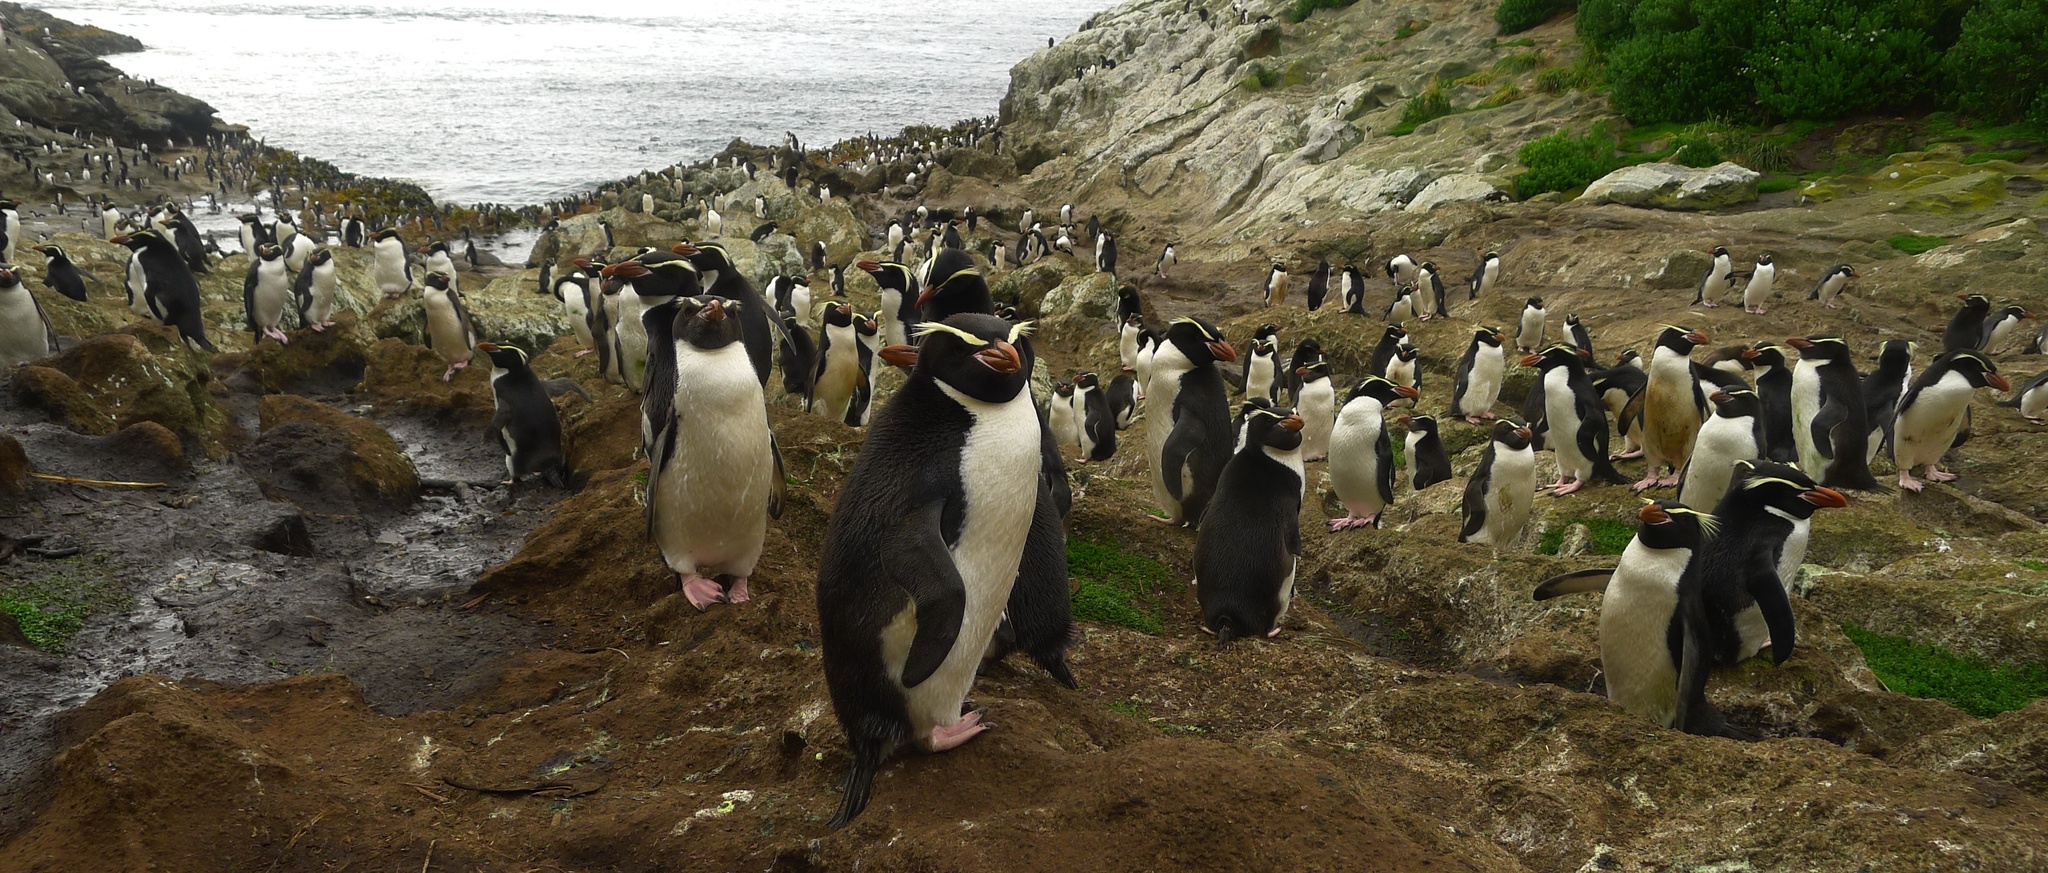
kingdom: Animalia
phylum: Chordata
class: Aves
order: Sphenisciformes
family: Spheniscidae
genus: Eudyptes
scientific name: Eudyptes robustus
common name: Snares penguin
